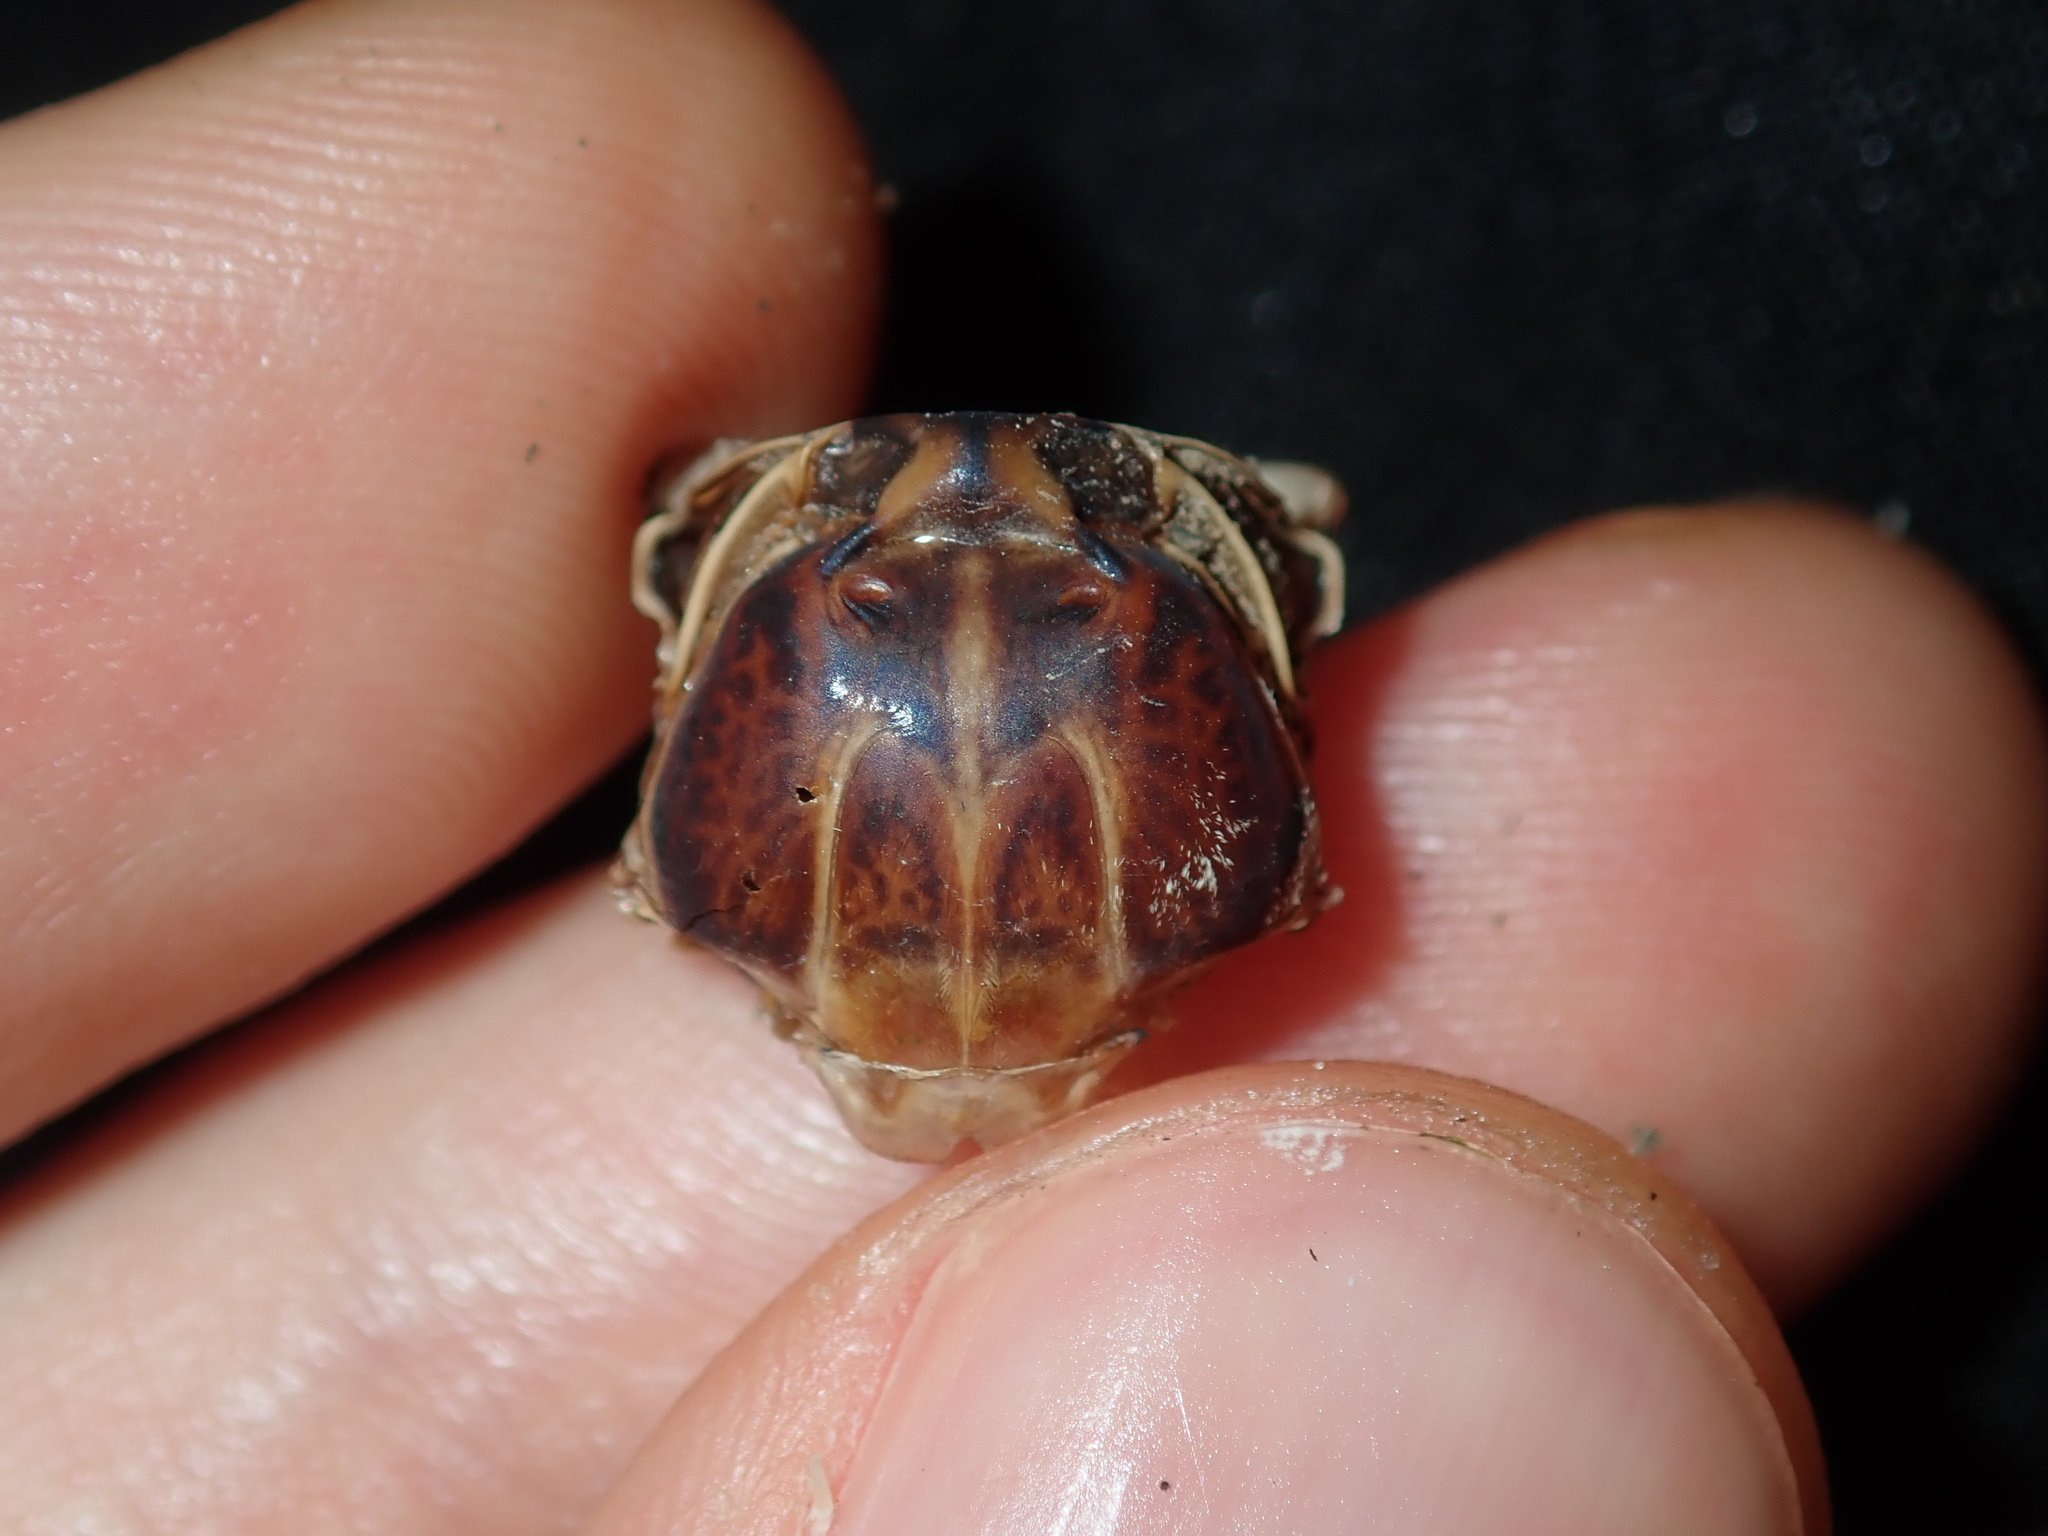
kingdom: Animalia
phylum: Arthropoda
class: Insecta
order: Hemiptera
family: Cicadidae
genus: Aleeta
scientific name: Aleeta curvicosta
